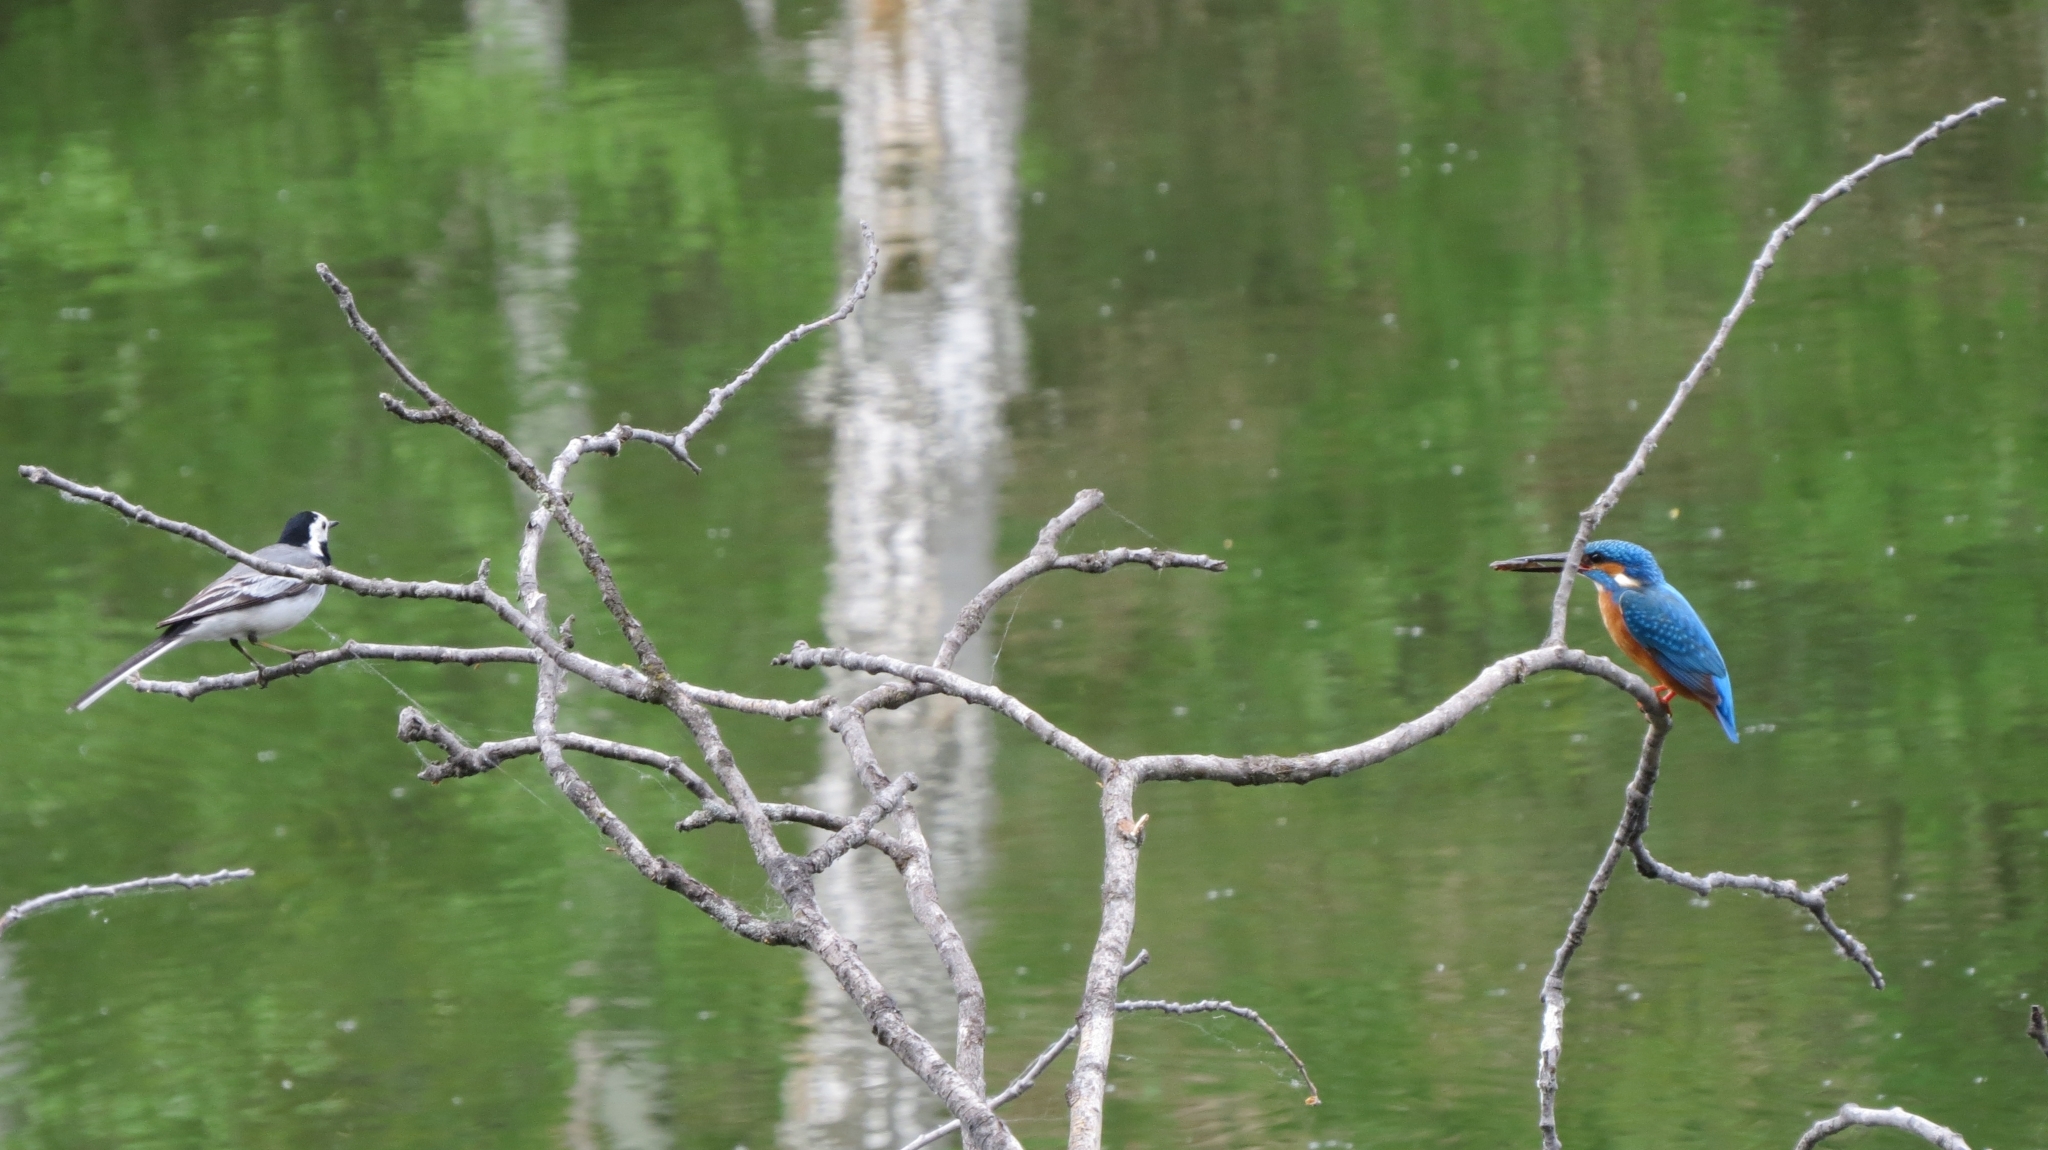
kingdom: Animalia
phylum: Chordata
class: Aves
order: Coraciiformes
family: Alcedinidae
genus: Alcedo
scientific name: Alcedo atthis
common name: Common kingfisher
